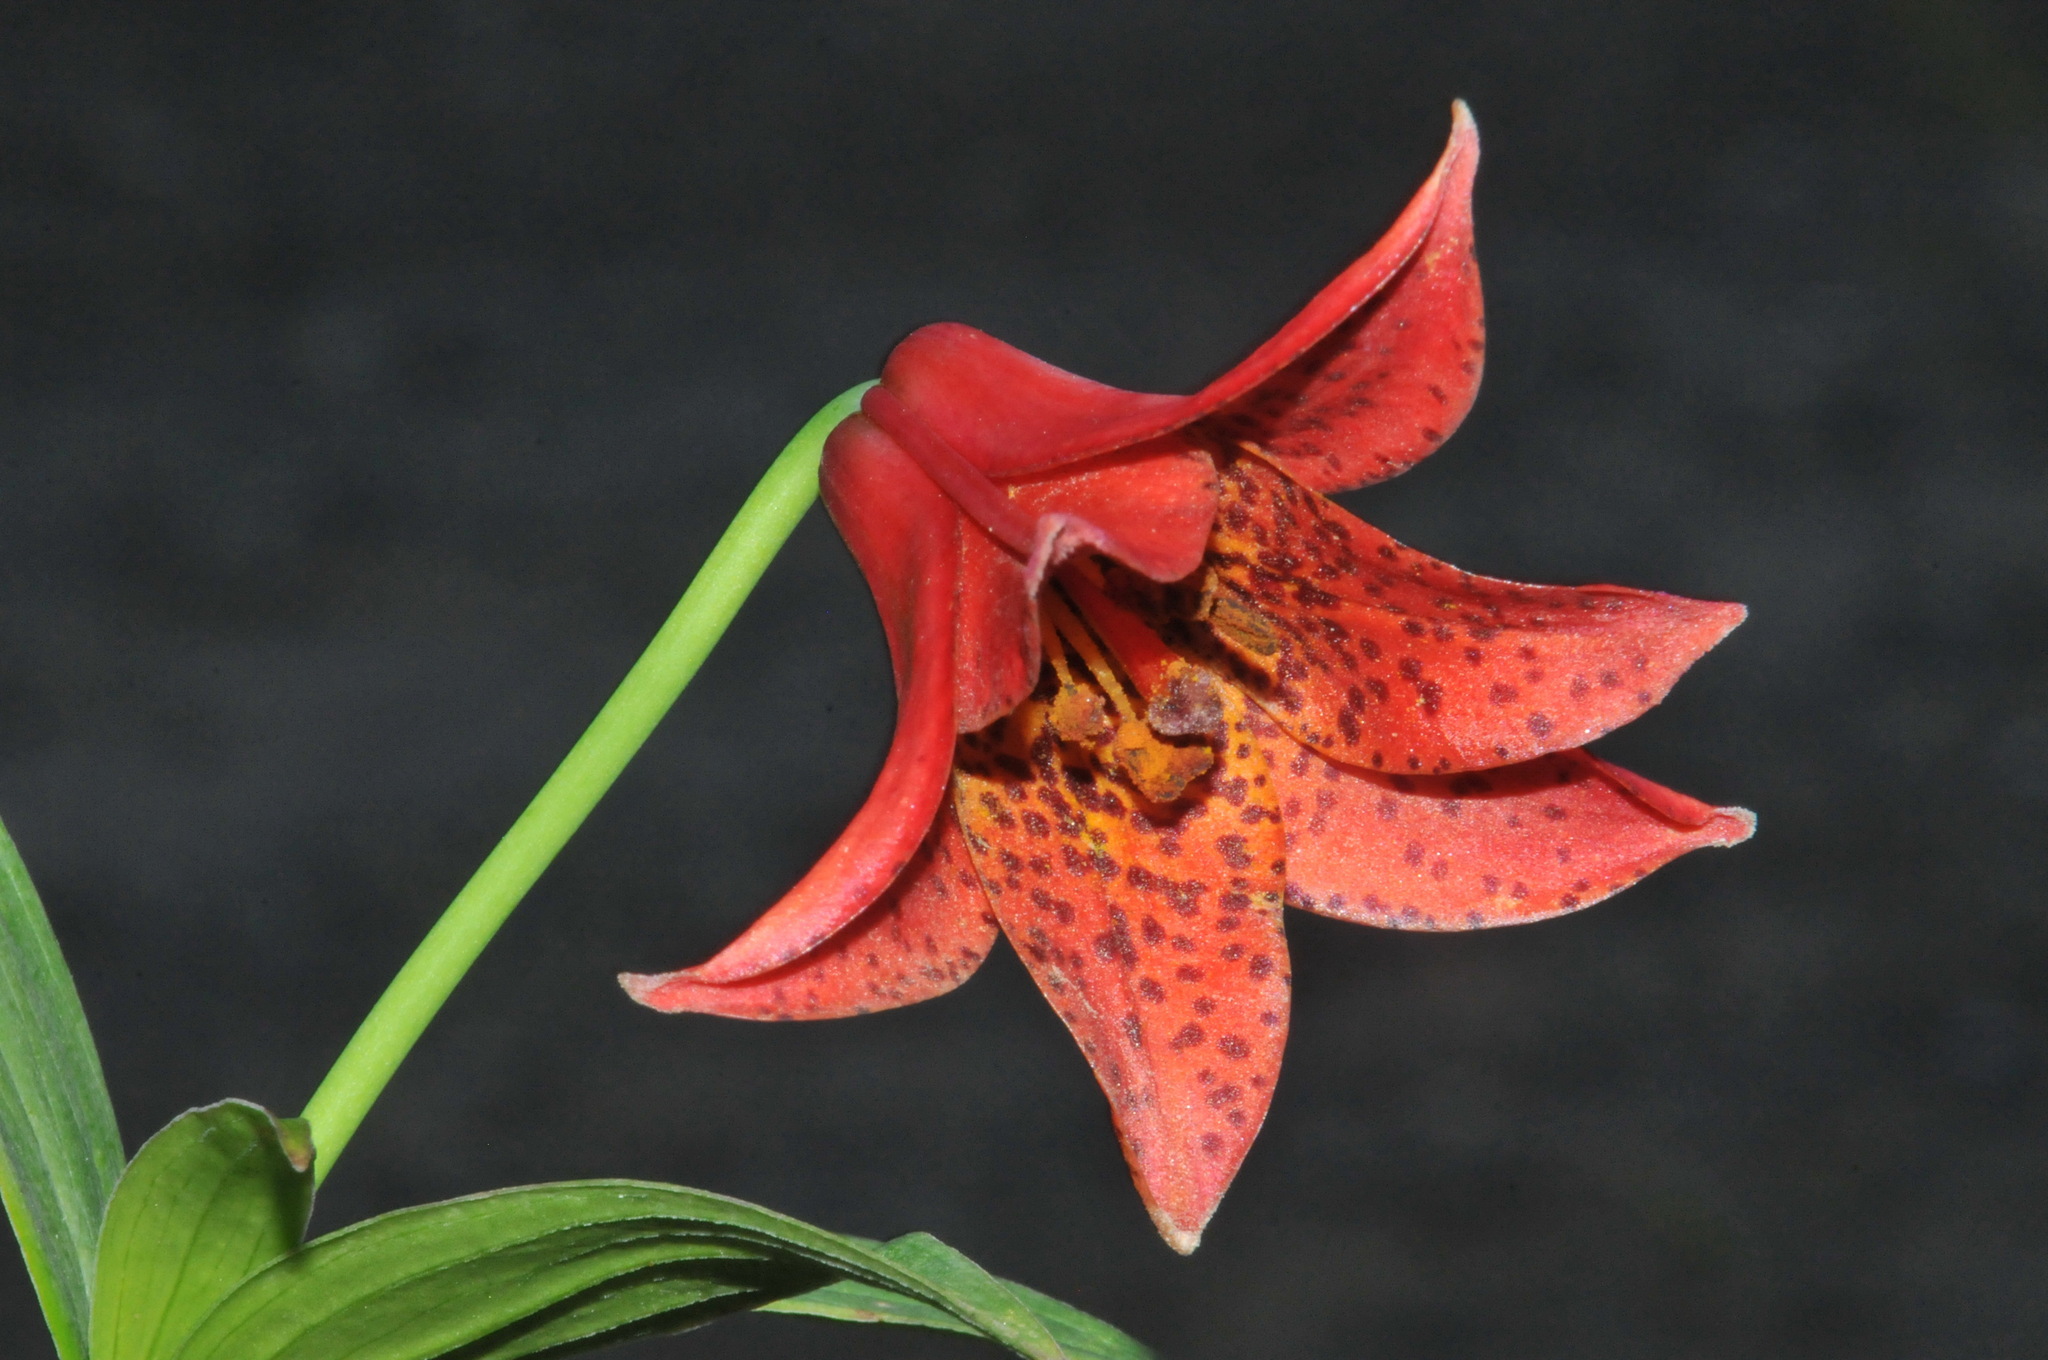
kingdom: Plantae
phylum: Tracheophyta
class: Liliopsida
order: Liliales
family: Liliaceae
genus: Lilium
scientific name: Lilium grayi
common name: Gray's lily
